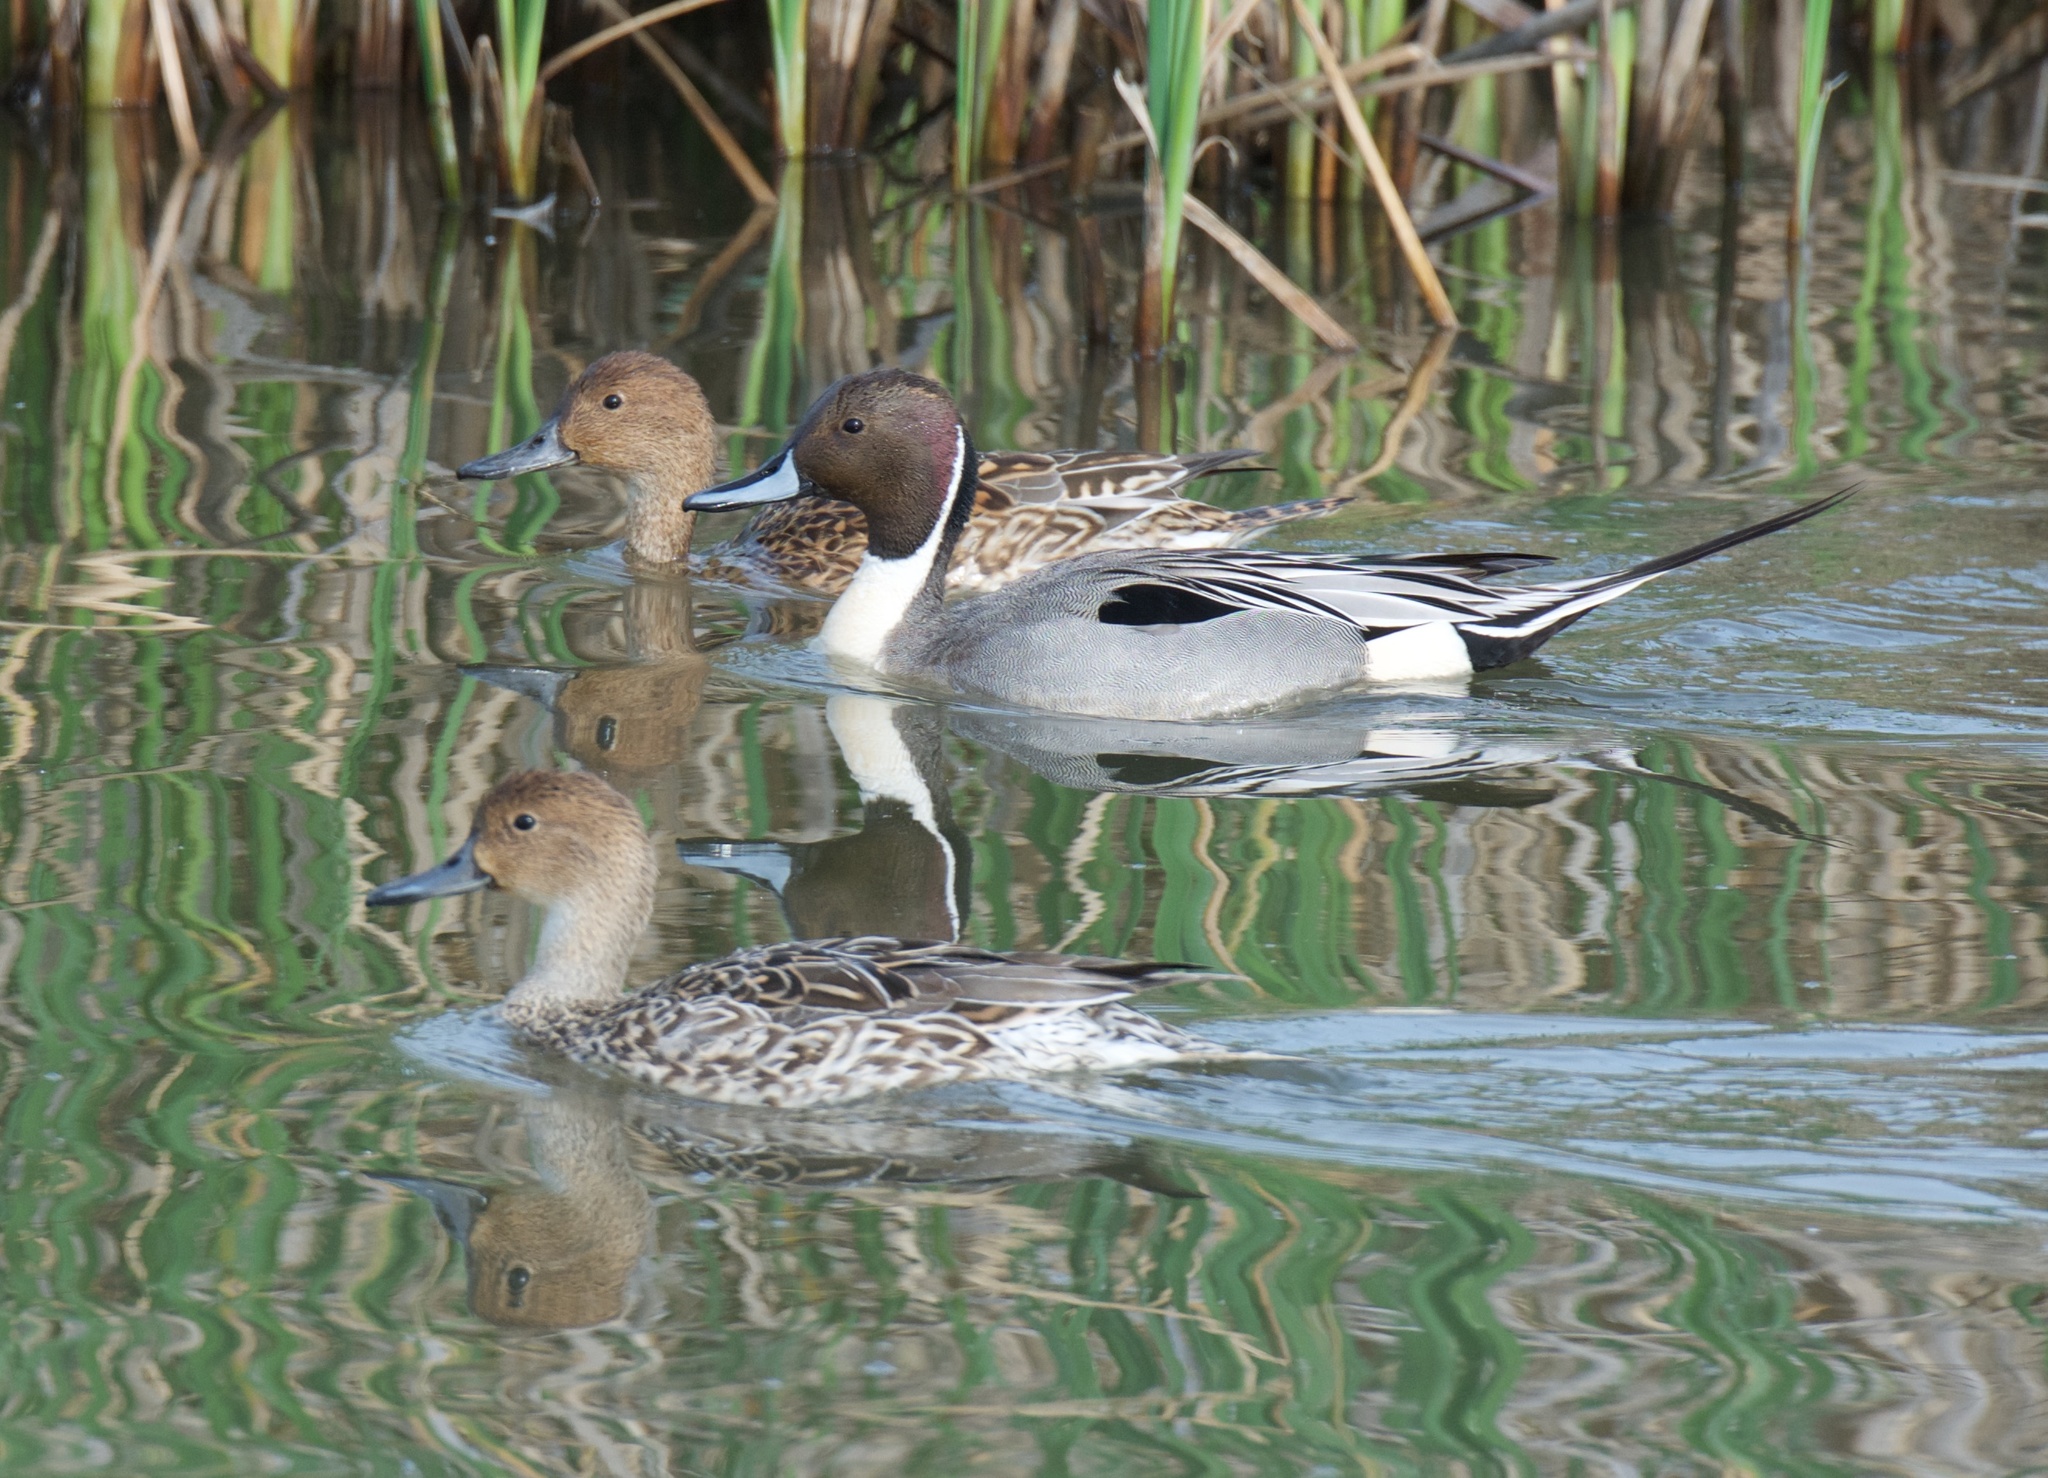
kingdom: Animalia
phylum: Chordata
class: Aves
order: Anseriformes
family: Anatidae
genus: Anas
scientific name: Anas acuta
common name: Northern pintail
